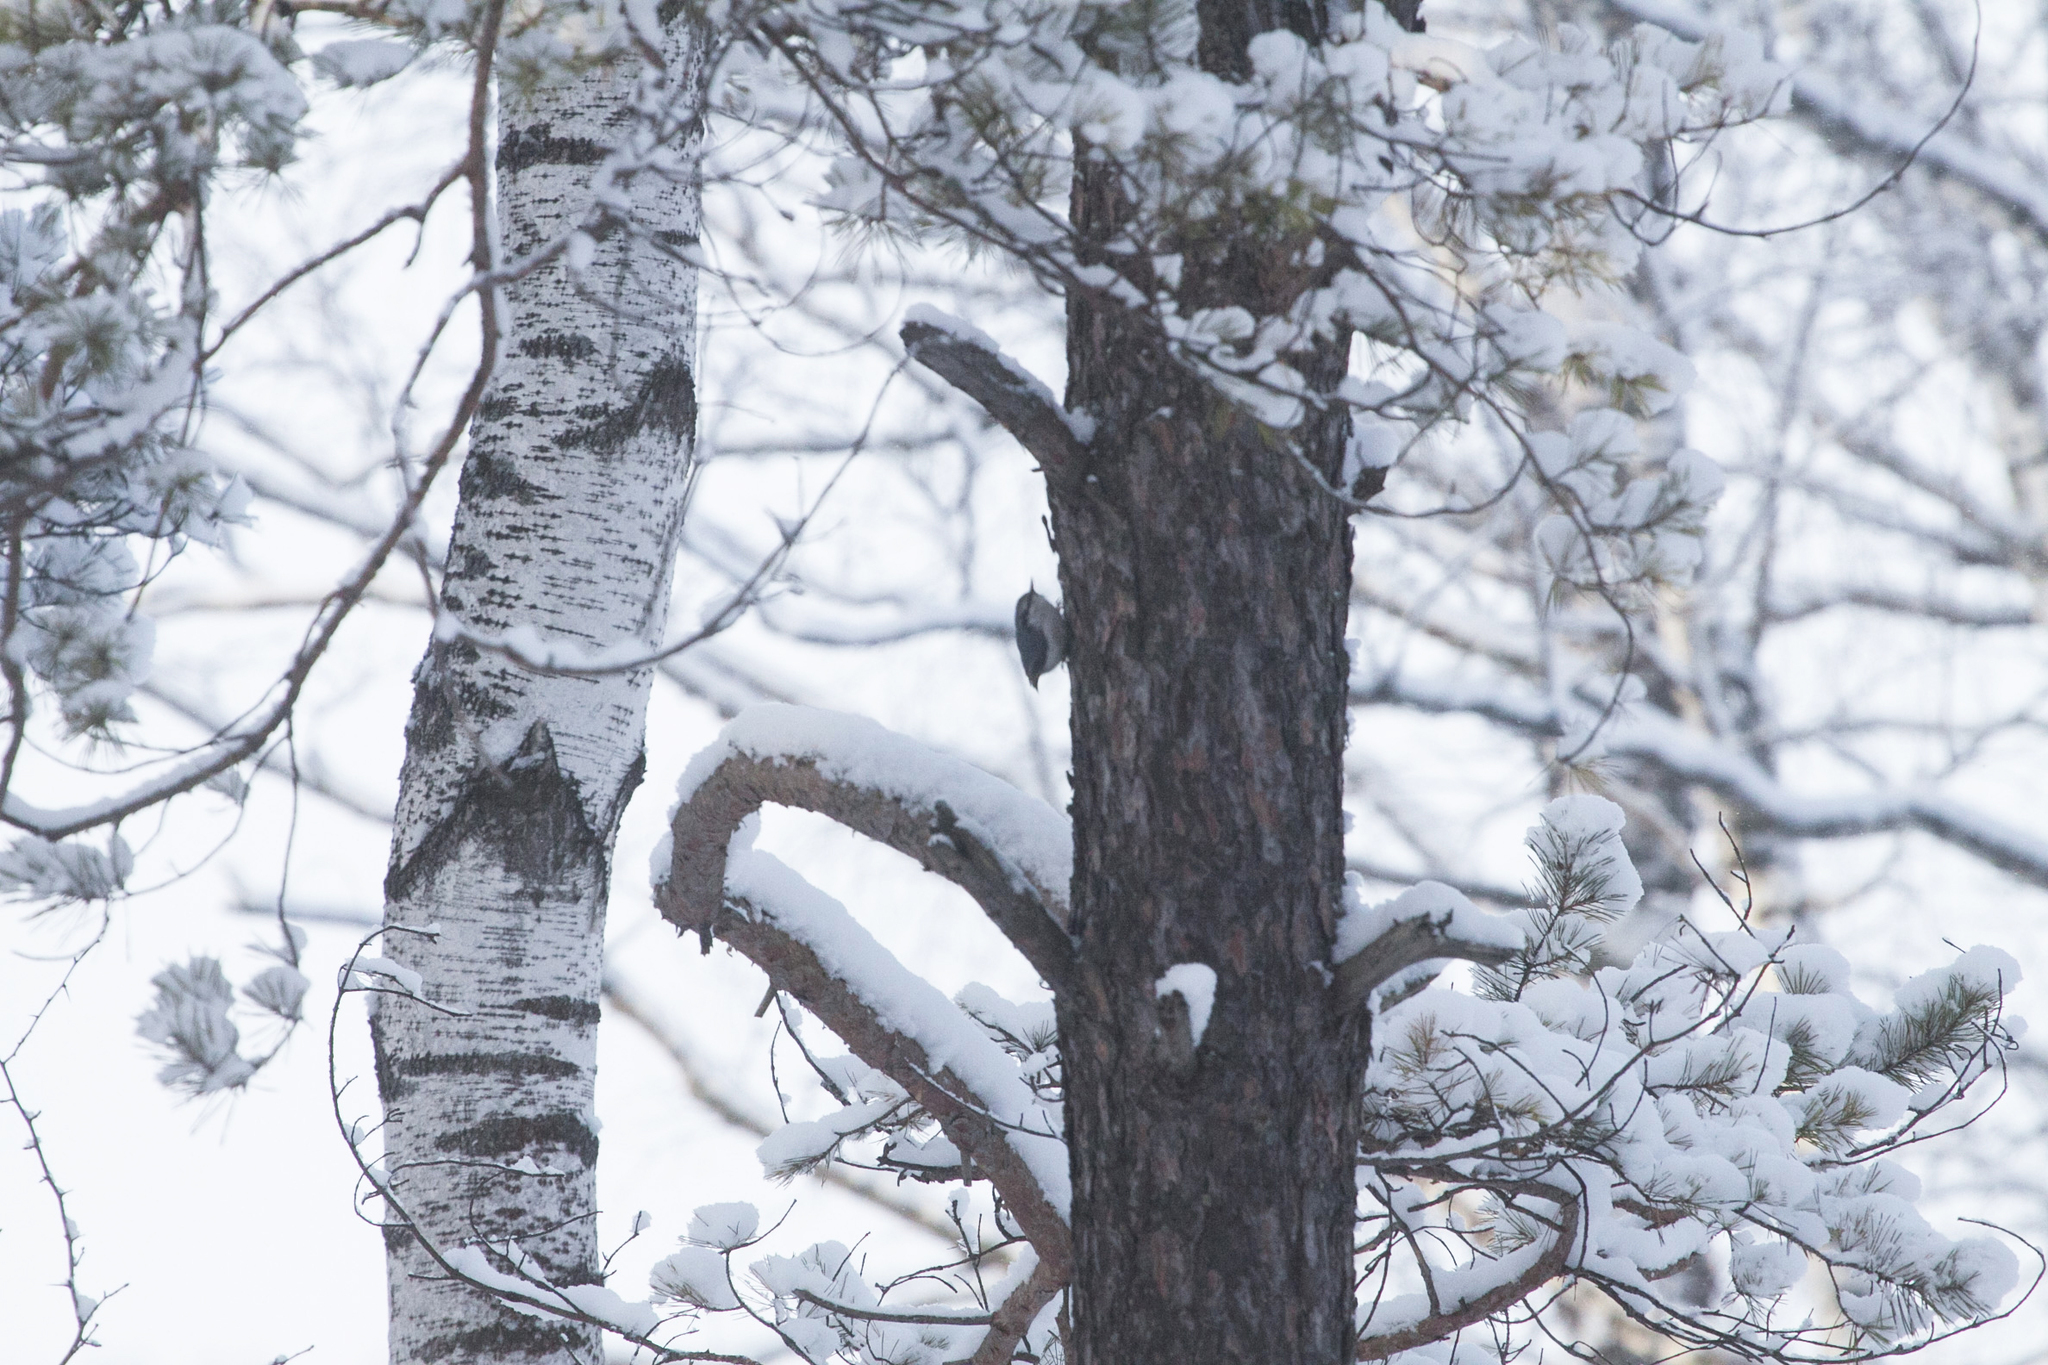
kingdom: Animalia
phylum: Chordata
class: Aves
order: Passeriformes
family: Sittidae
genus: Sitta
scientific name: Sitta europaea
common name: Eurasian nuthatch
